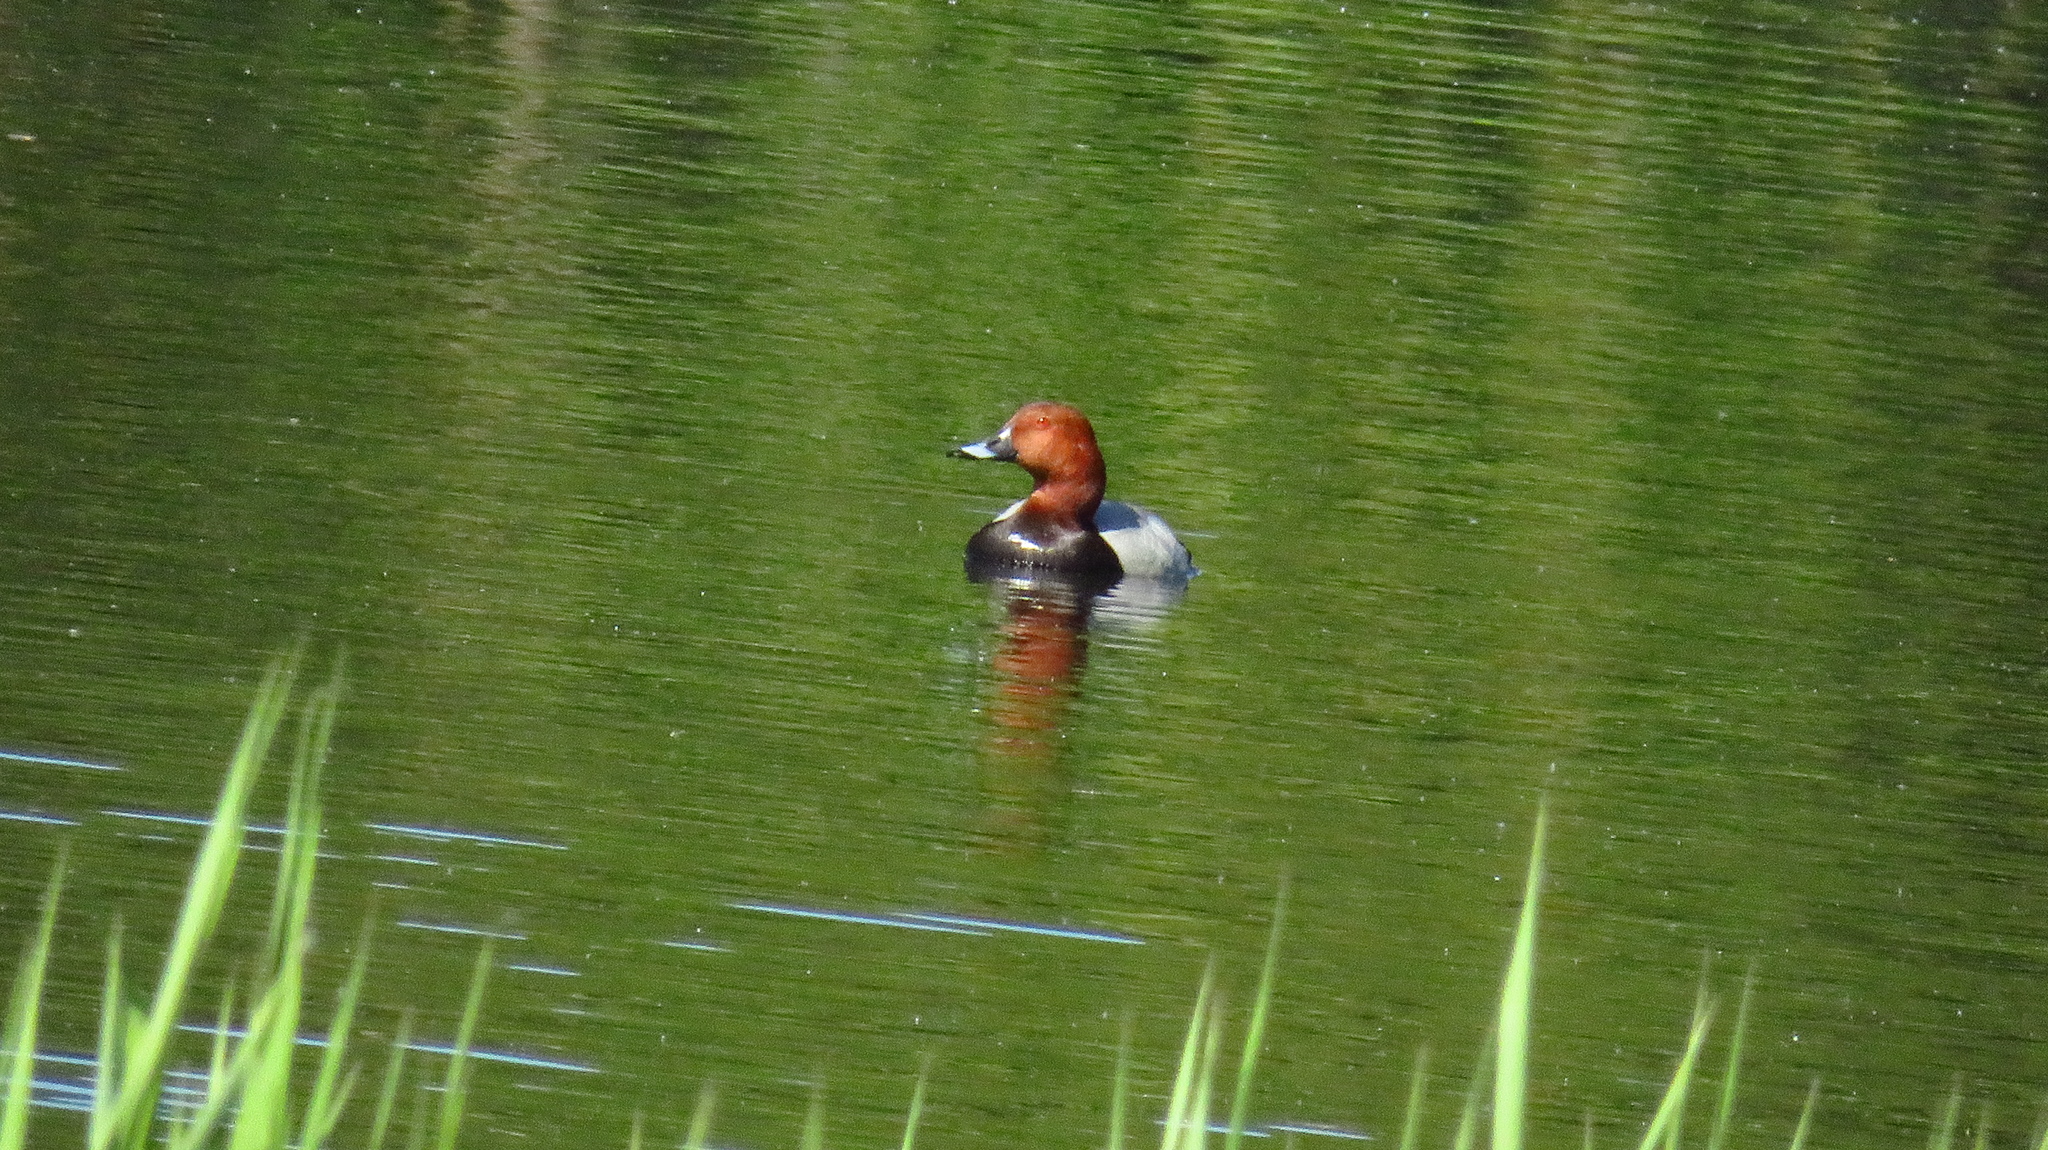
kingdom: Animalia
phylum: Chordata
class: Aves
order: Anseriformes
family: Anatidae
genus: Aythya
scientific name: Aythya ferina
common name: Common pochard
